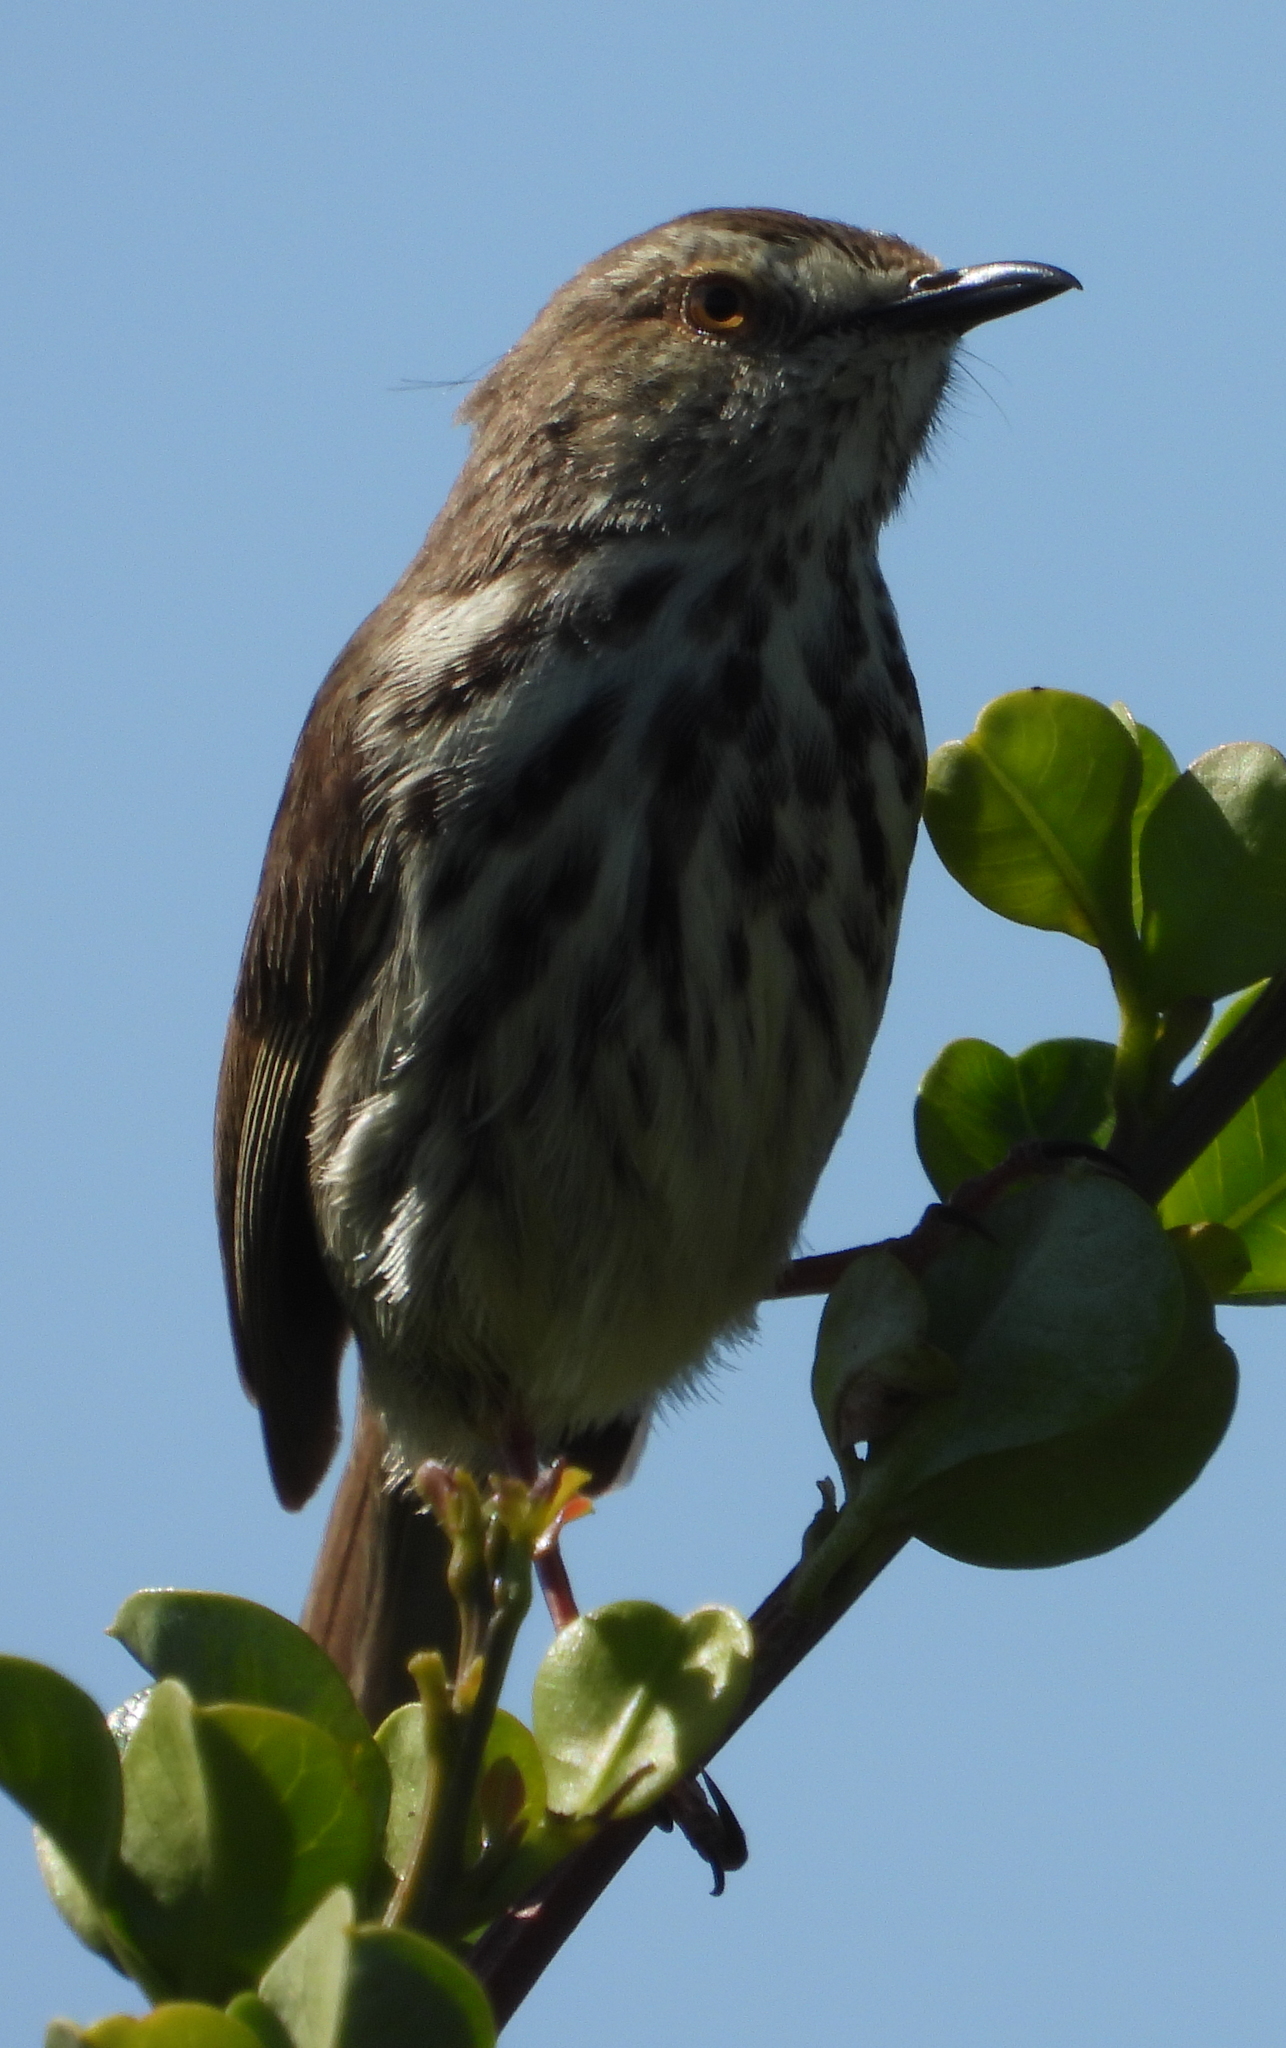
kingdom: Animalia
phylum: Chordata
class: Aves
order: Passeriformes
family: Cisticolidae
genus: Prinia
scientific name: Prinia maculosa
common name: Karoo prinia
